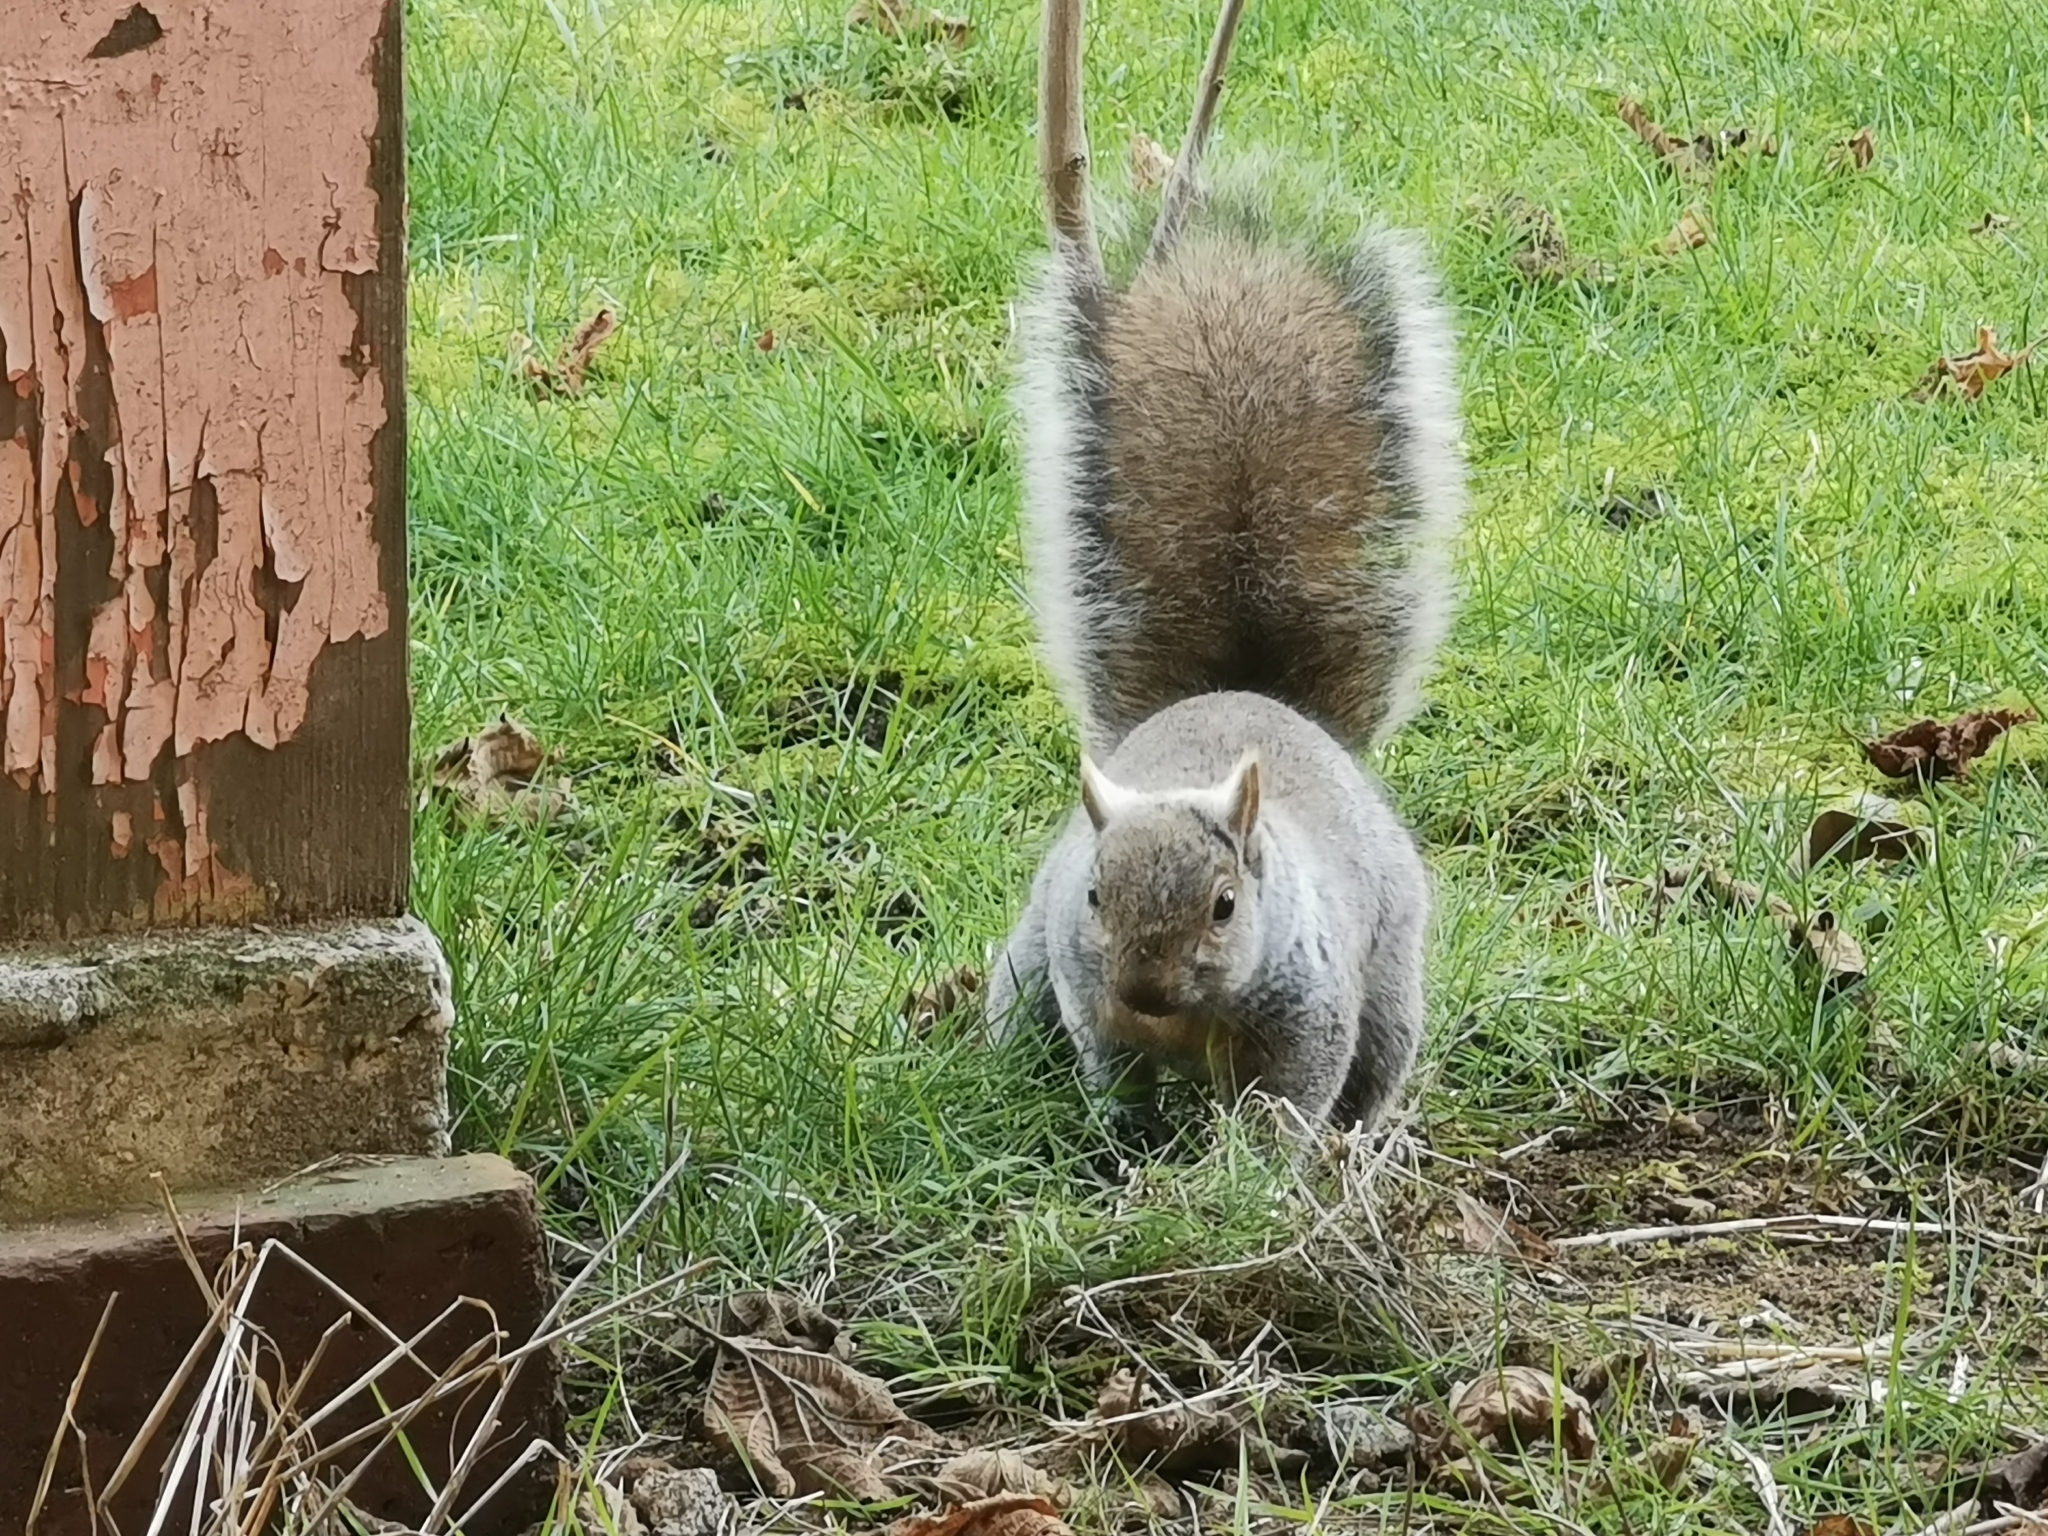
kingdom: Animalia
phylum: Chordata
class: Mammalia
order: Rodentia
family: Sciuridae
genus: Sciurus
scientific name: Sciurus carolinensis
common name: Eastern gray squirrel
